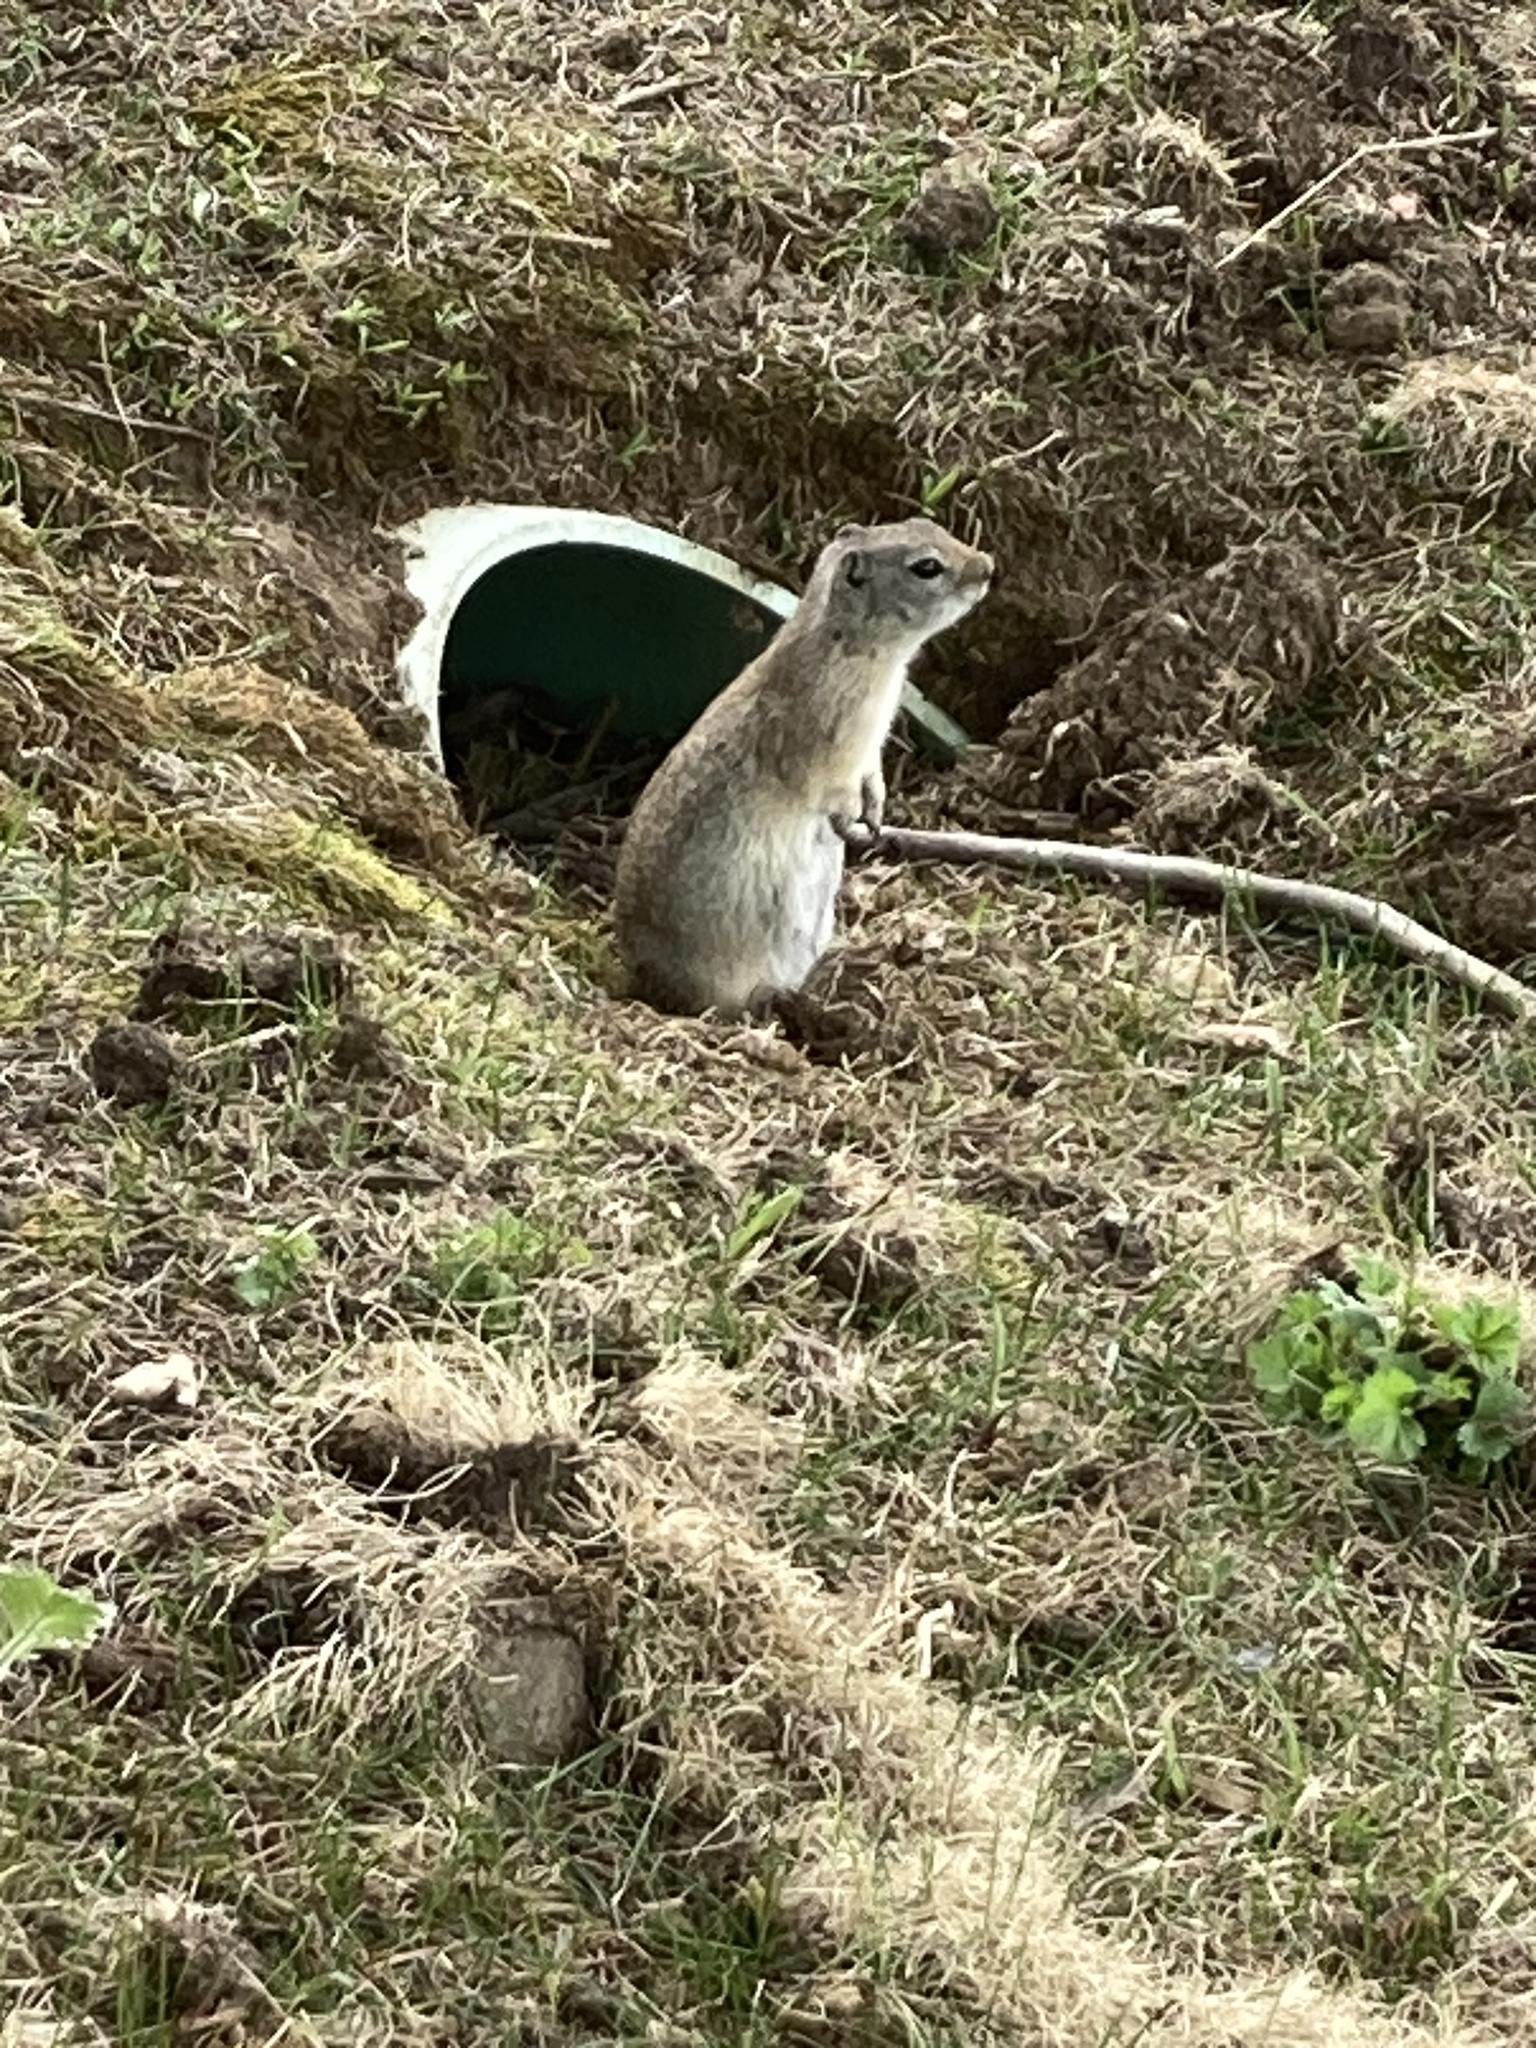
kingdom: Animalia
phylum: Chordata
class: Mammalia
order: Rodentia
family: Sciuridae
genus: Urocitellus
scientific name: Urocitellus elegans
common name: Wyoming ground squirrel
